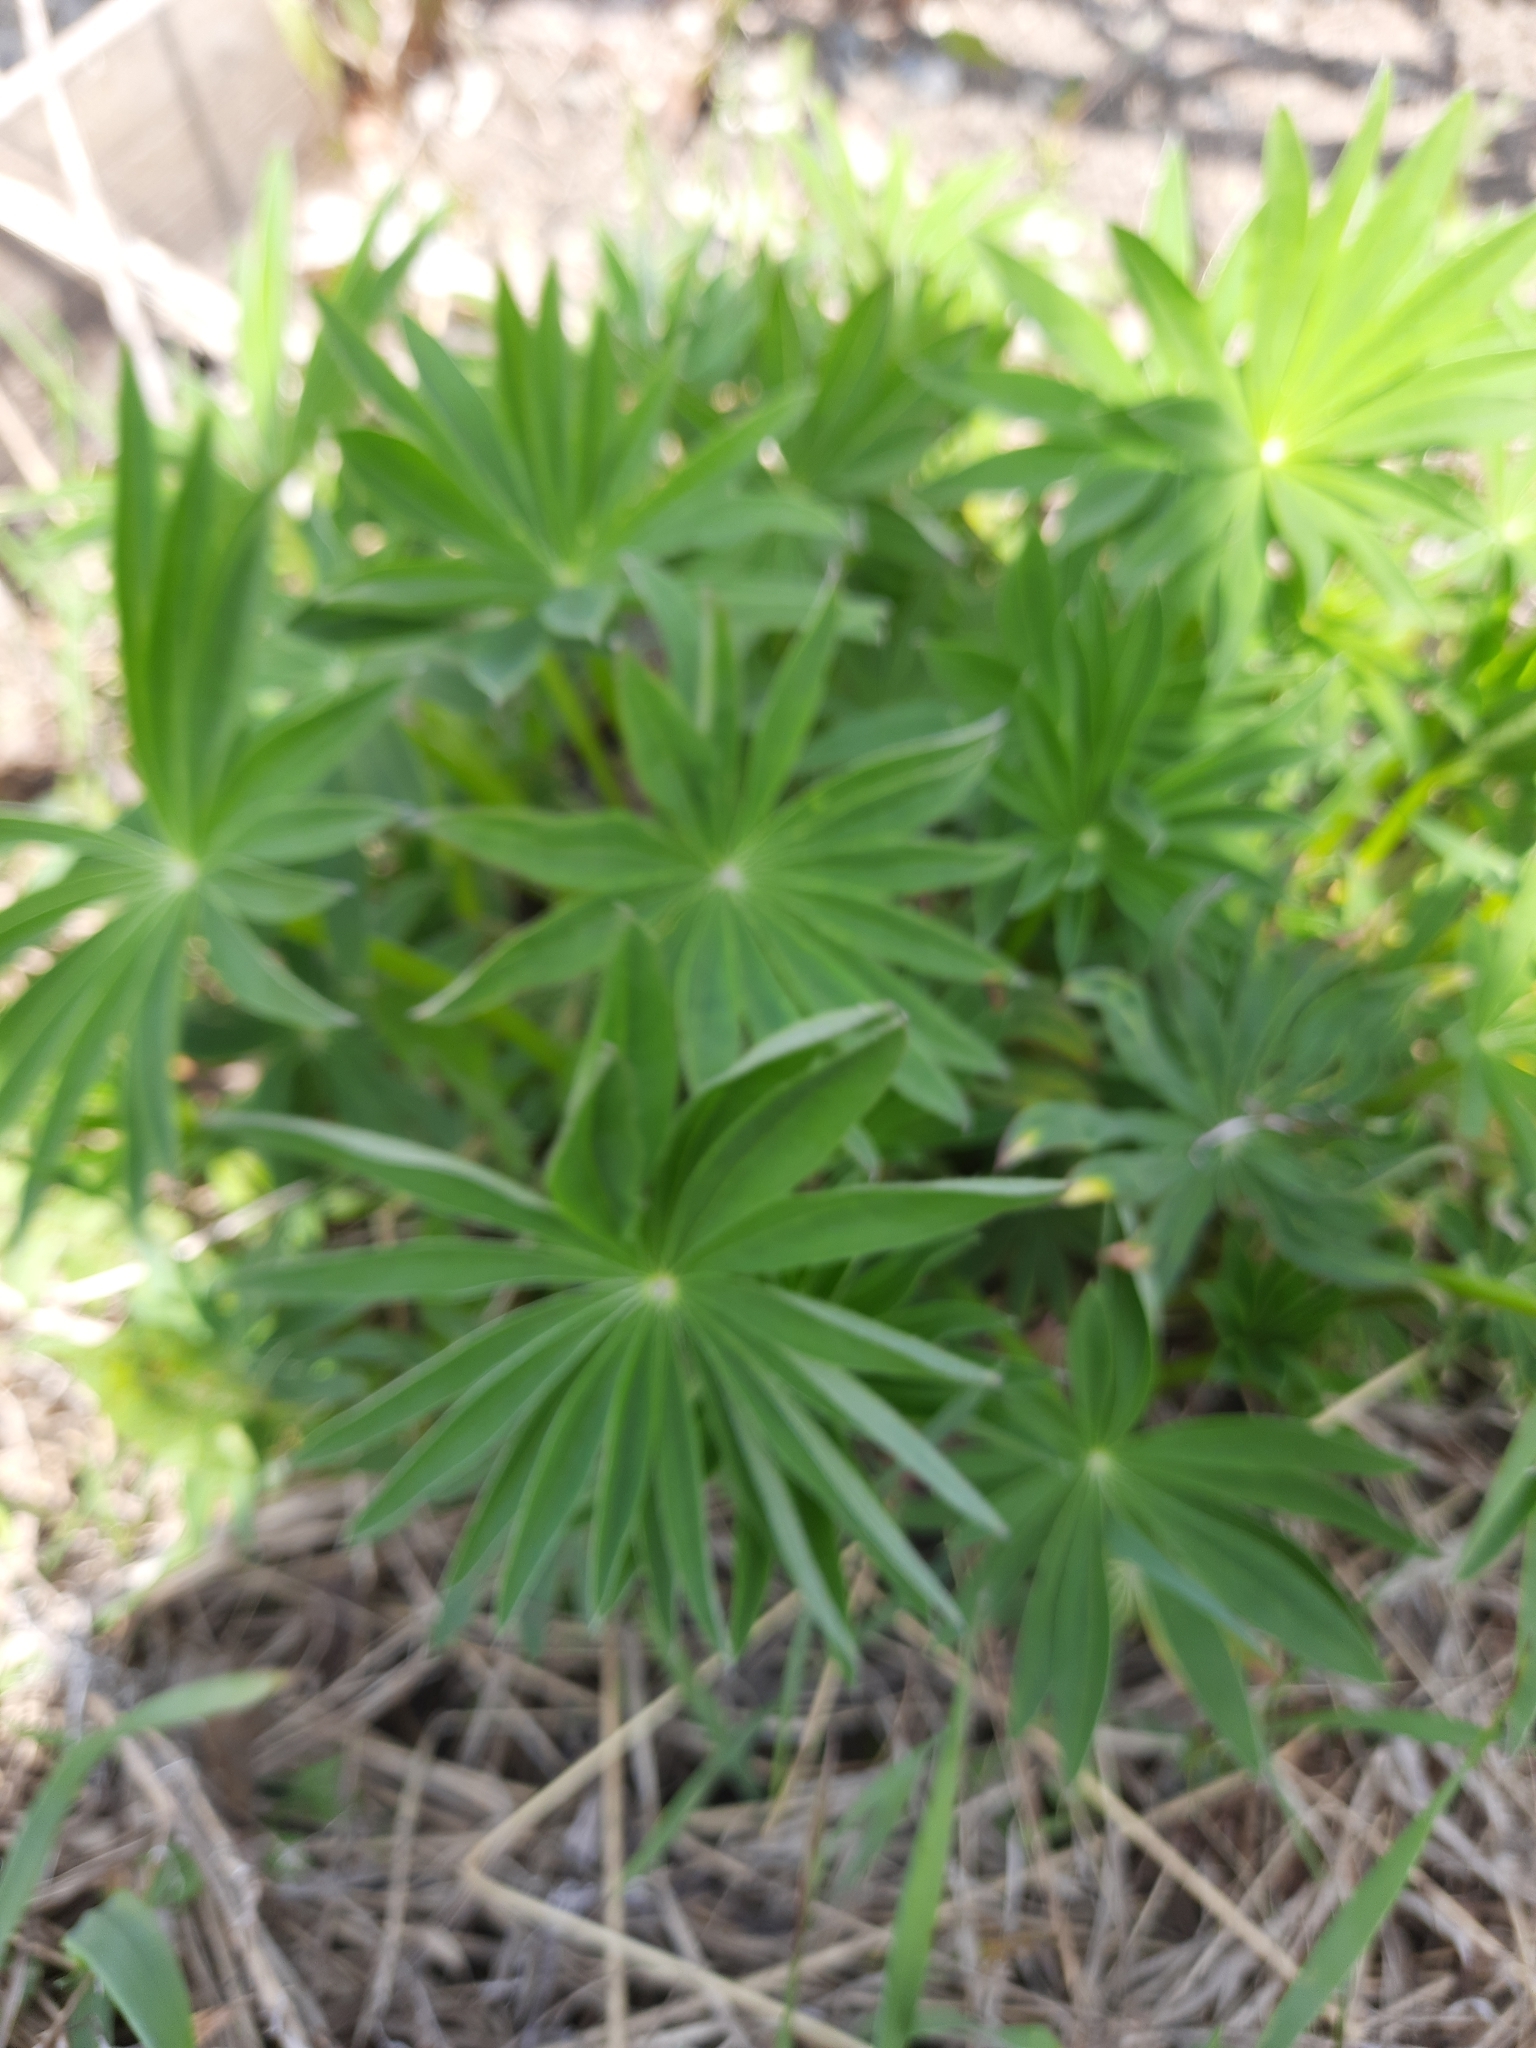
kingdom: Plantae
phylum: Tracheophyta
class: Magnoliopsida
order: Fabales
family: Fabaceae
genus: Lupinus
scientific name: Lupinus polyphyllus
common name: Garden lupin
